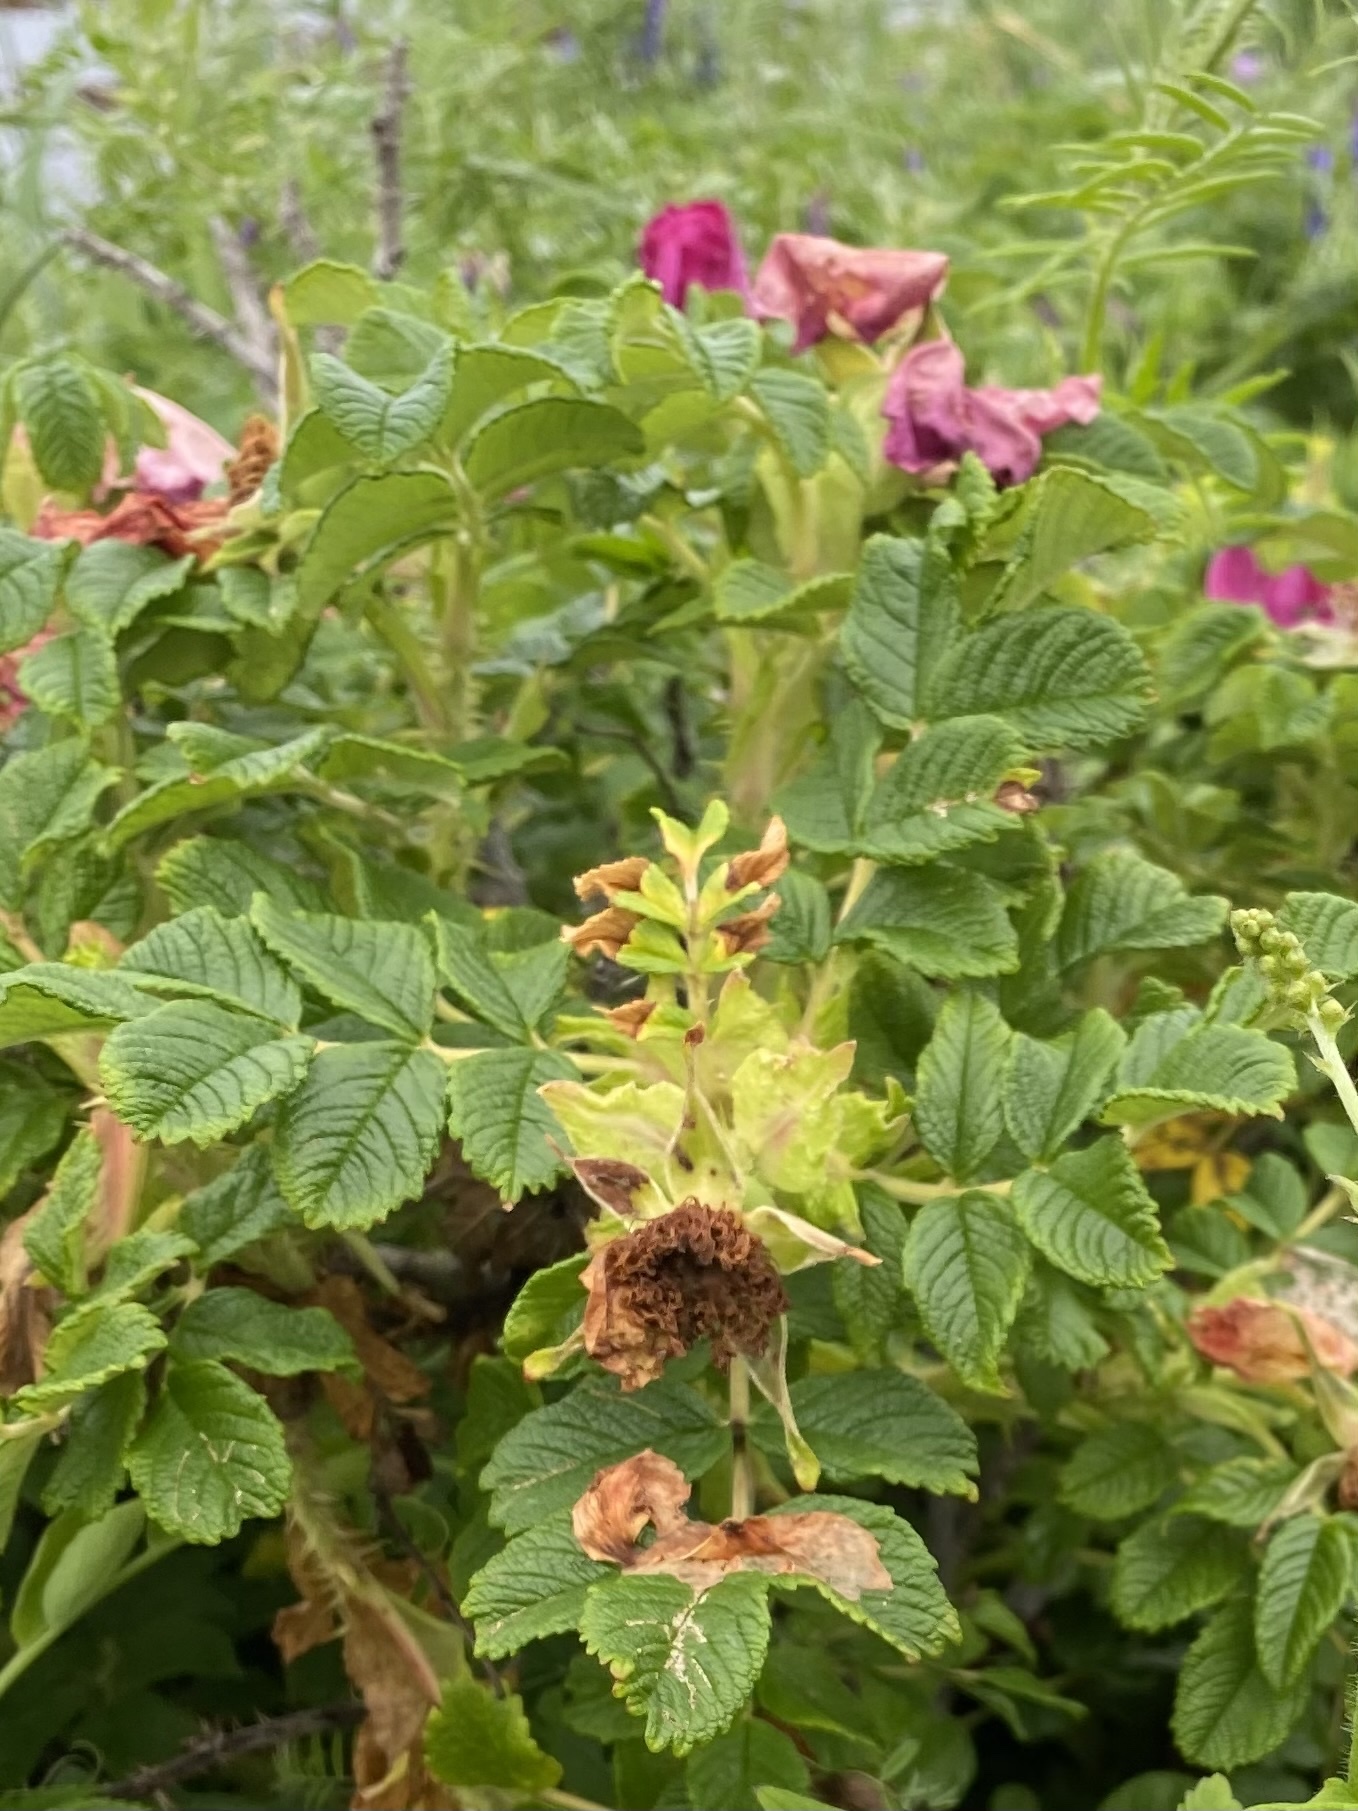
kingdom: Plantae
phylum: Tracheophyta
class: Magnoliopsida
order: Rosales
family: Rosaceae
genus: Rosa
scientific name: Rosa rugosa
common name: Japanese rose
